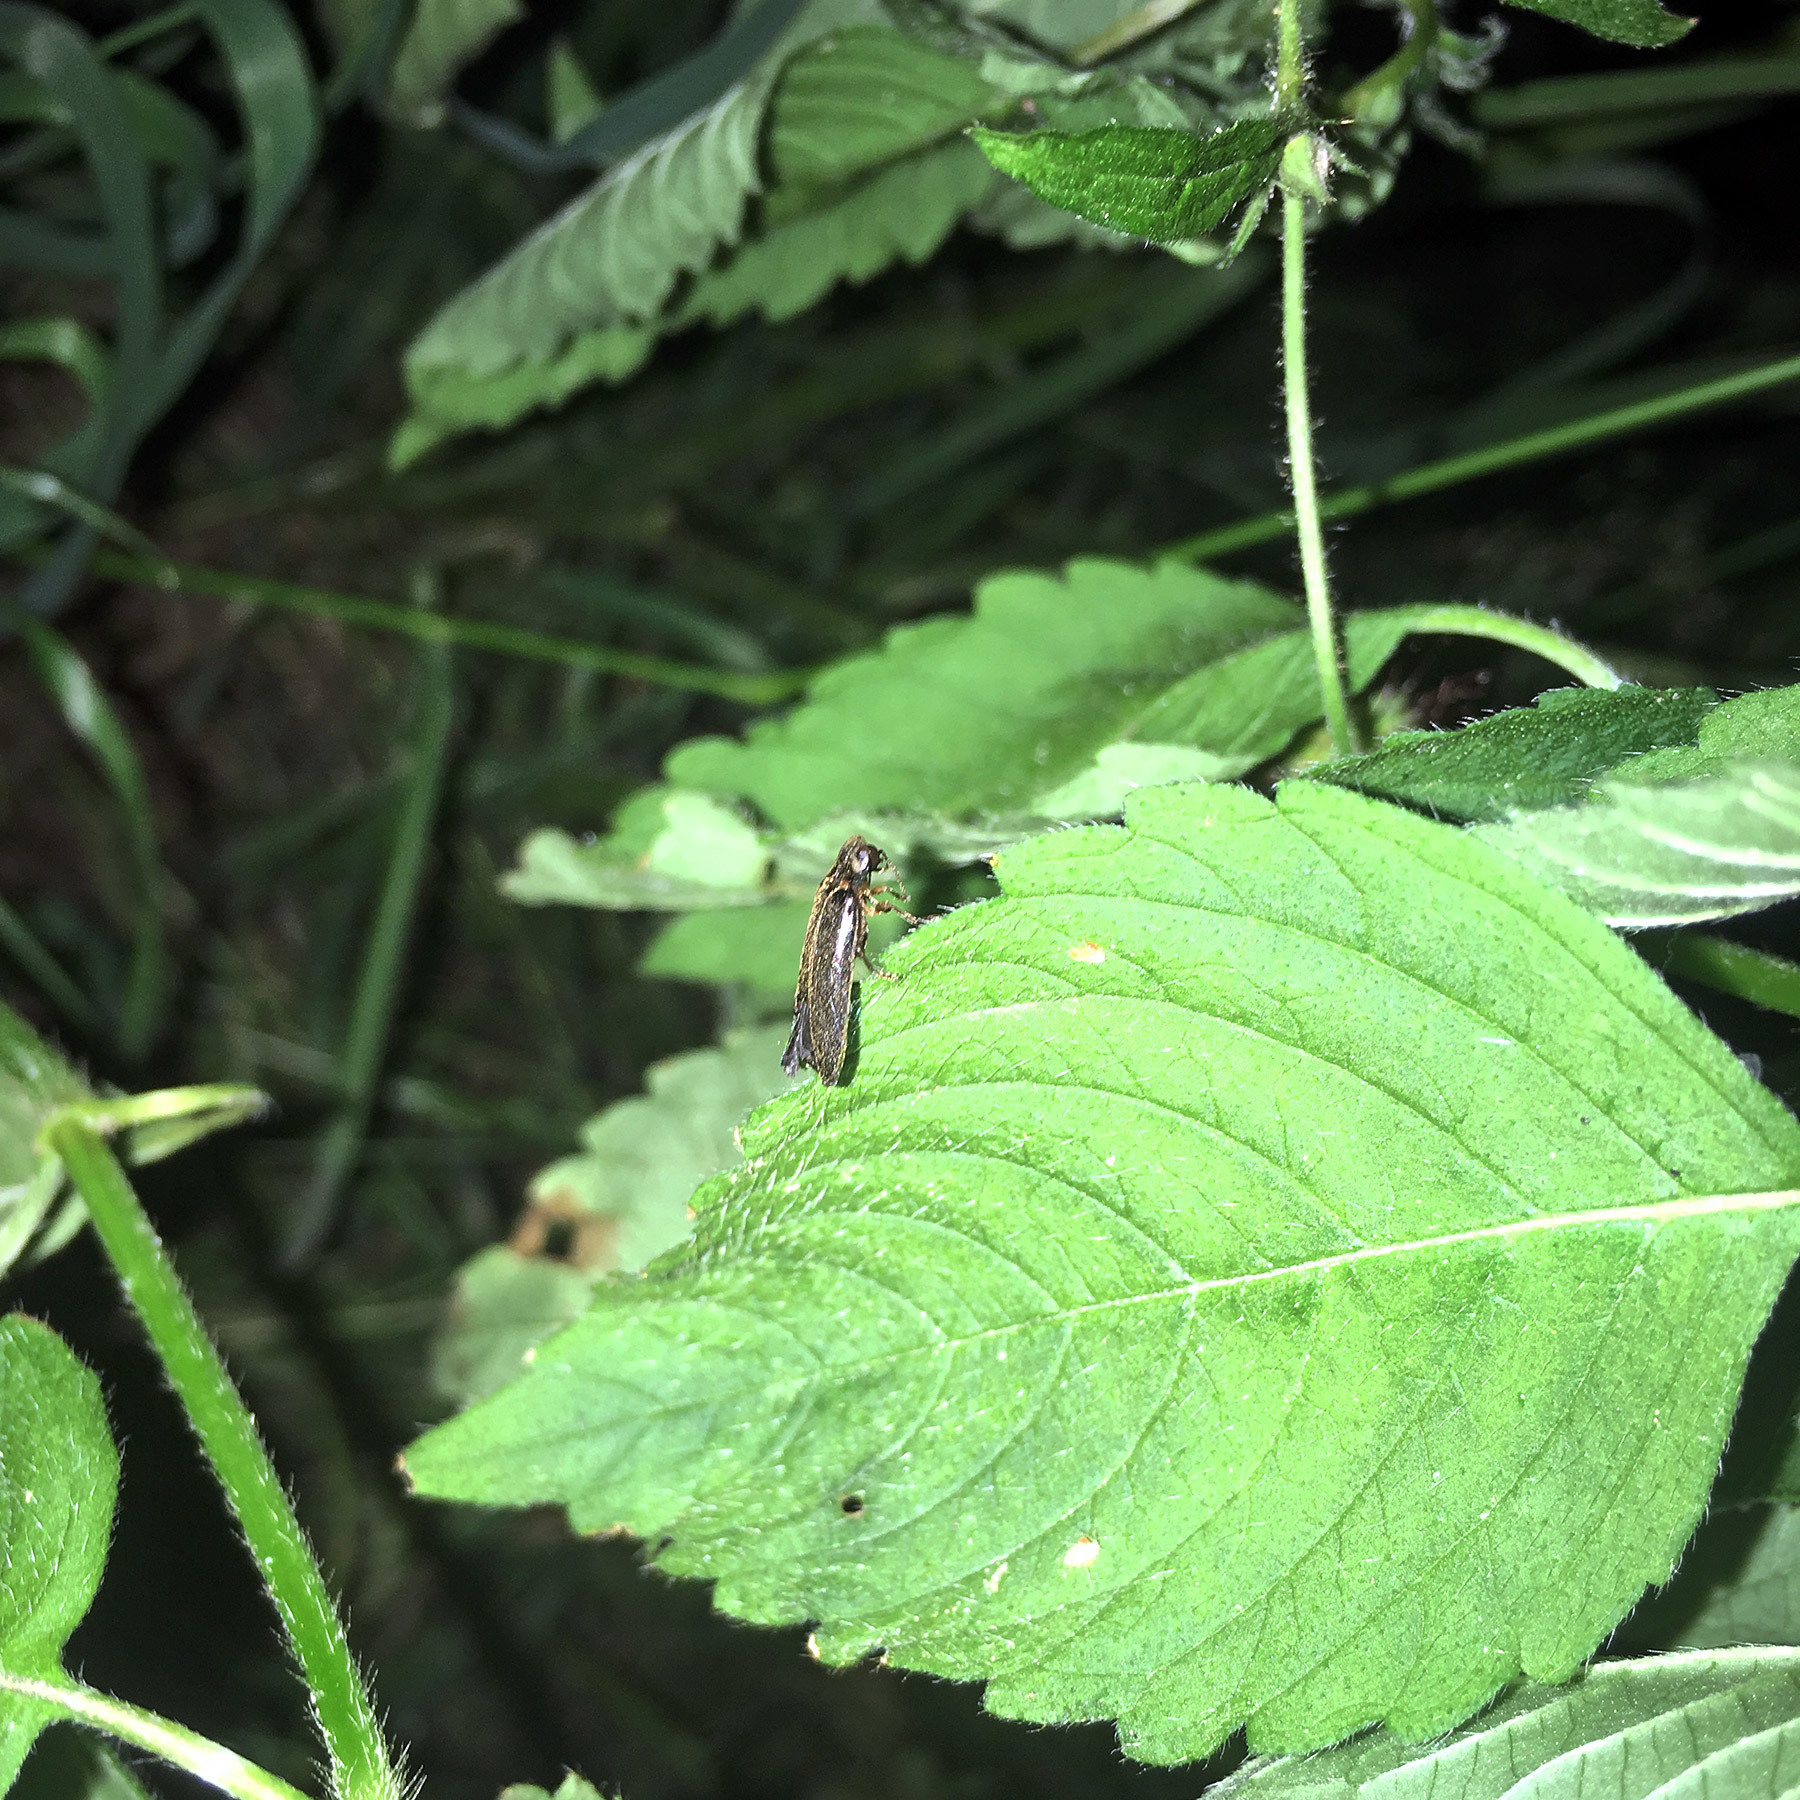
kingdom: Animalia
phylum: Arthropoda
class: Insecta
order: Coleoptera
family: Lampyridae
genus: Lamprohiza
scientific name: Lamprohiza splendidula
